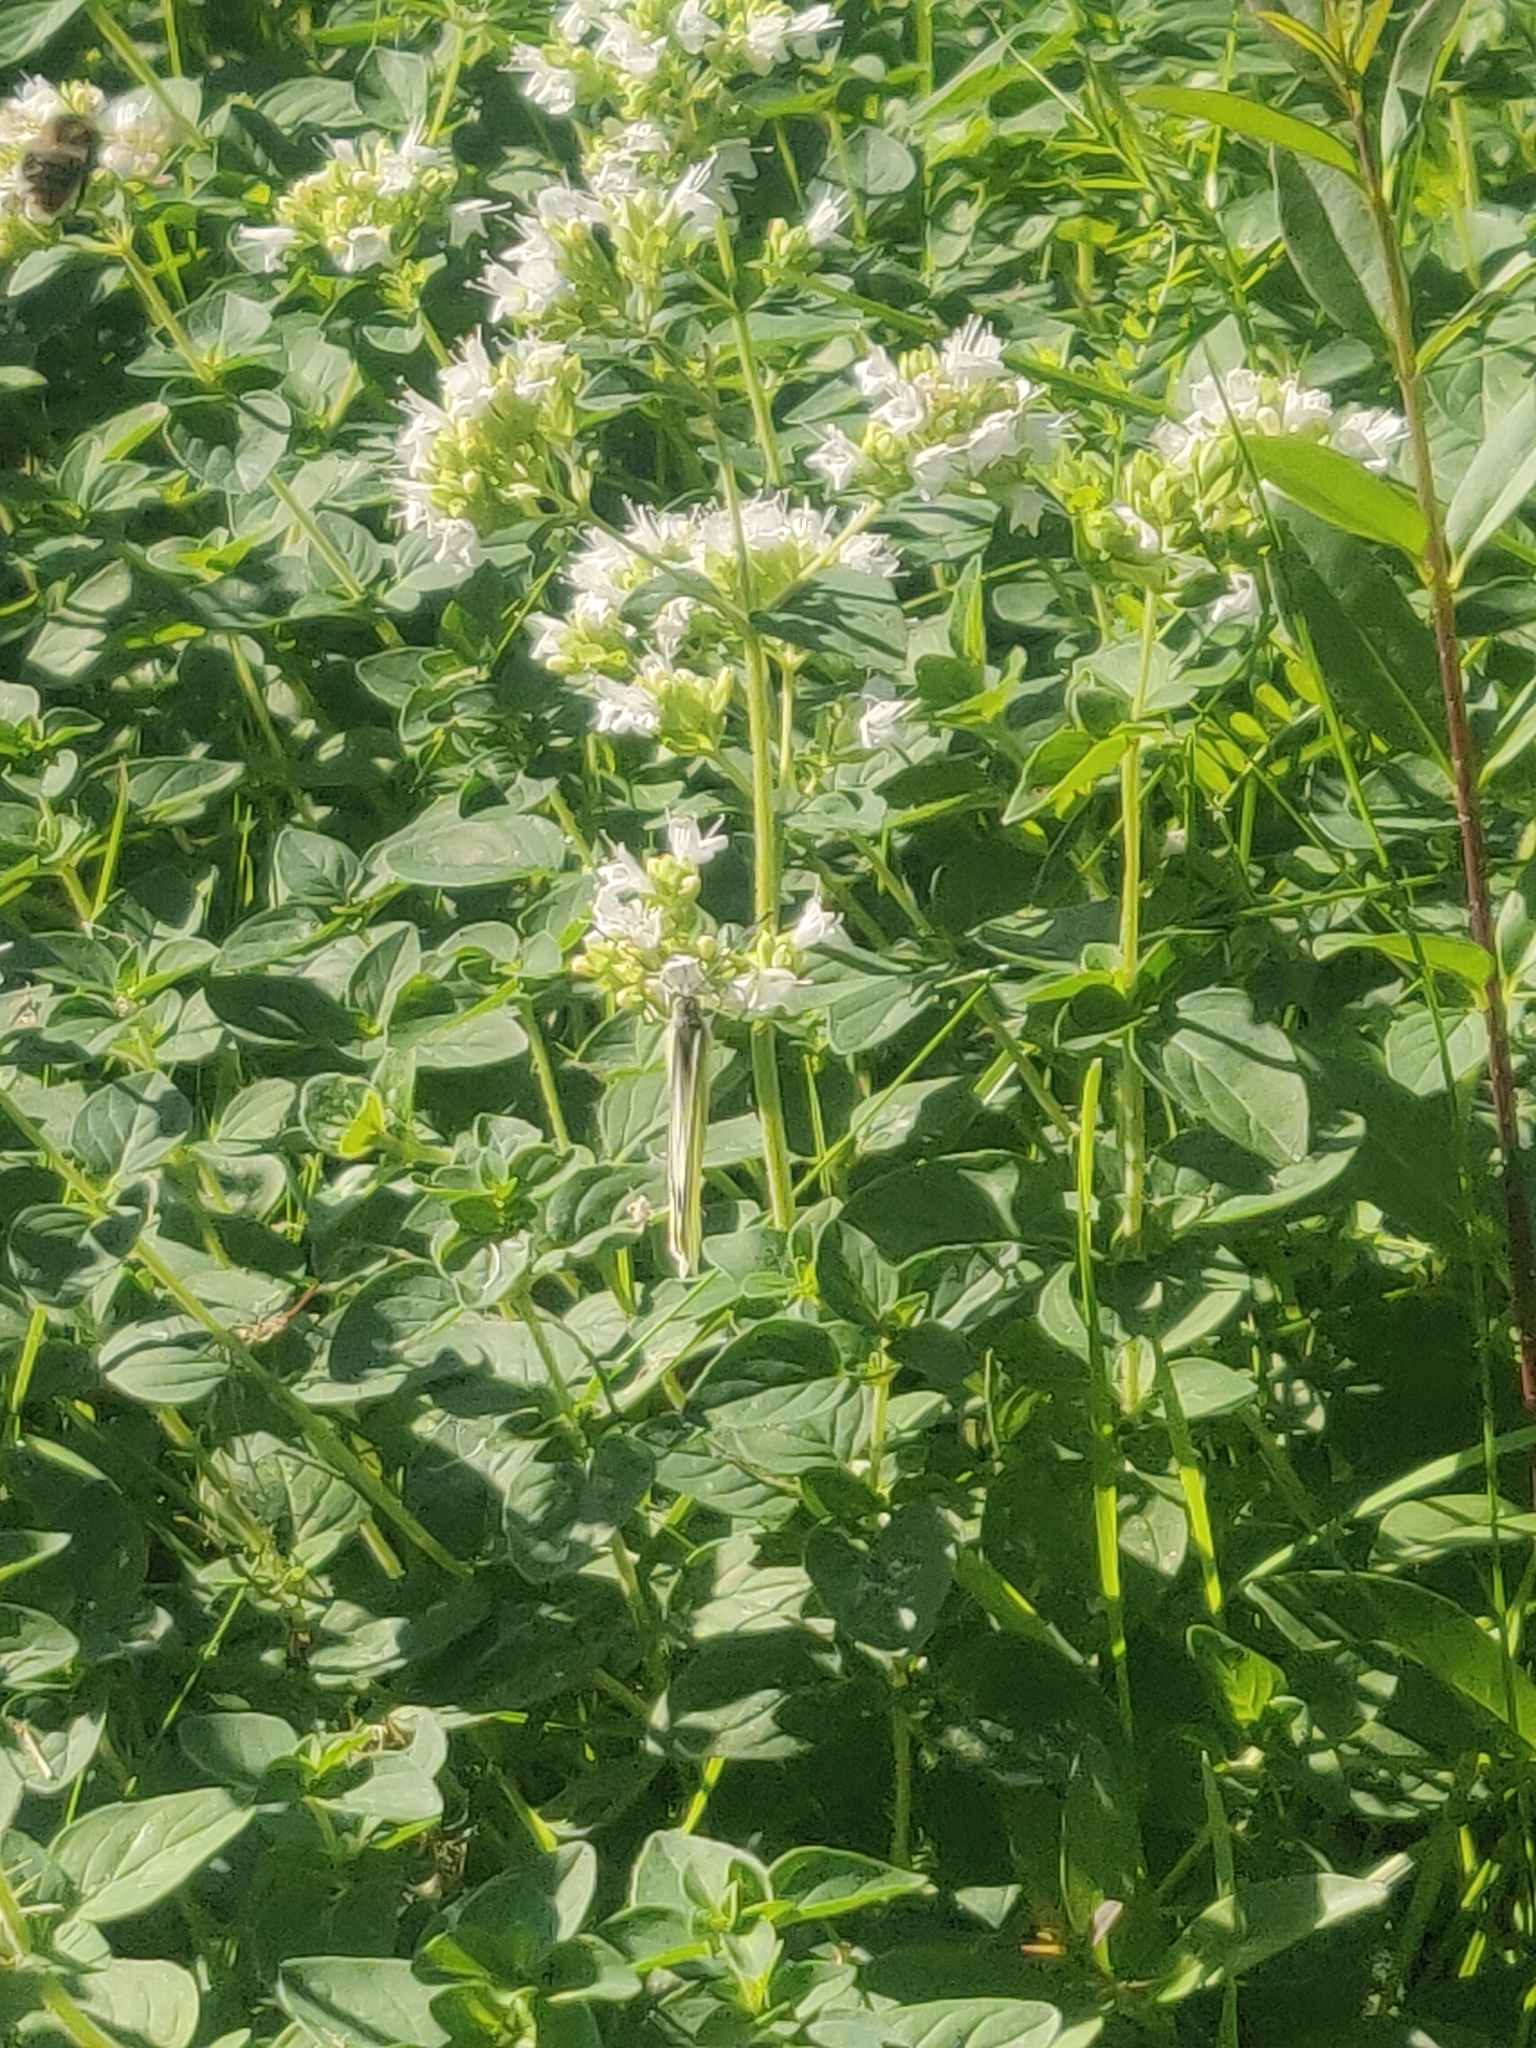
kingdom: Plantae
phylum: Tracheophyta
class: Magnoliopsida
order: Lamiales
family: Lamiaceae
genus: Origanum
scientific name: Origanum vulgare
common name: Wild marjoram
